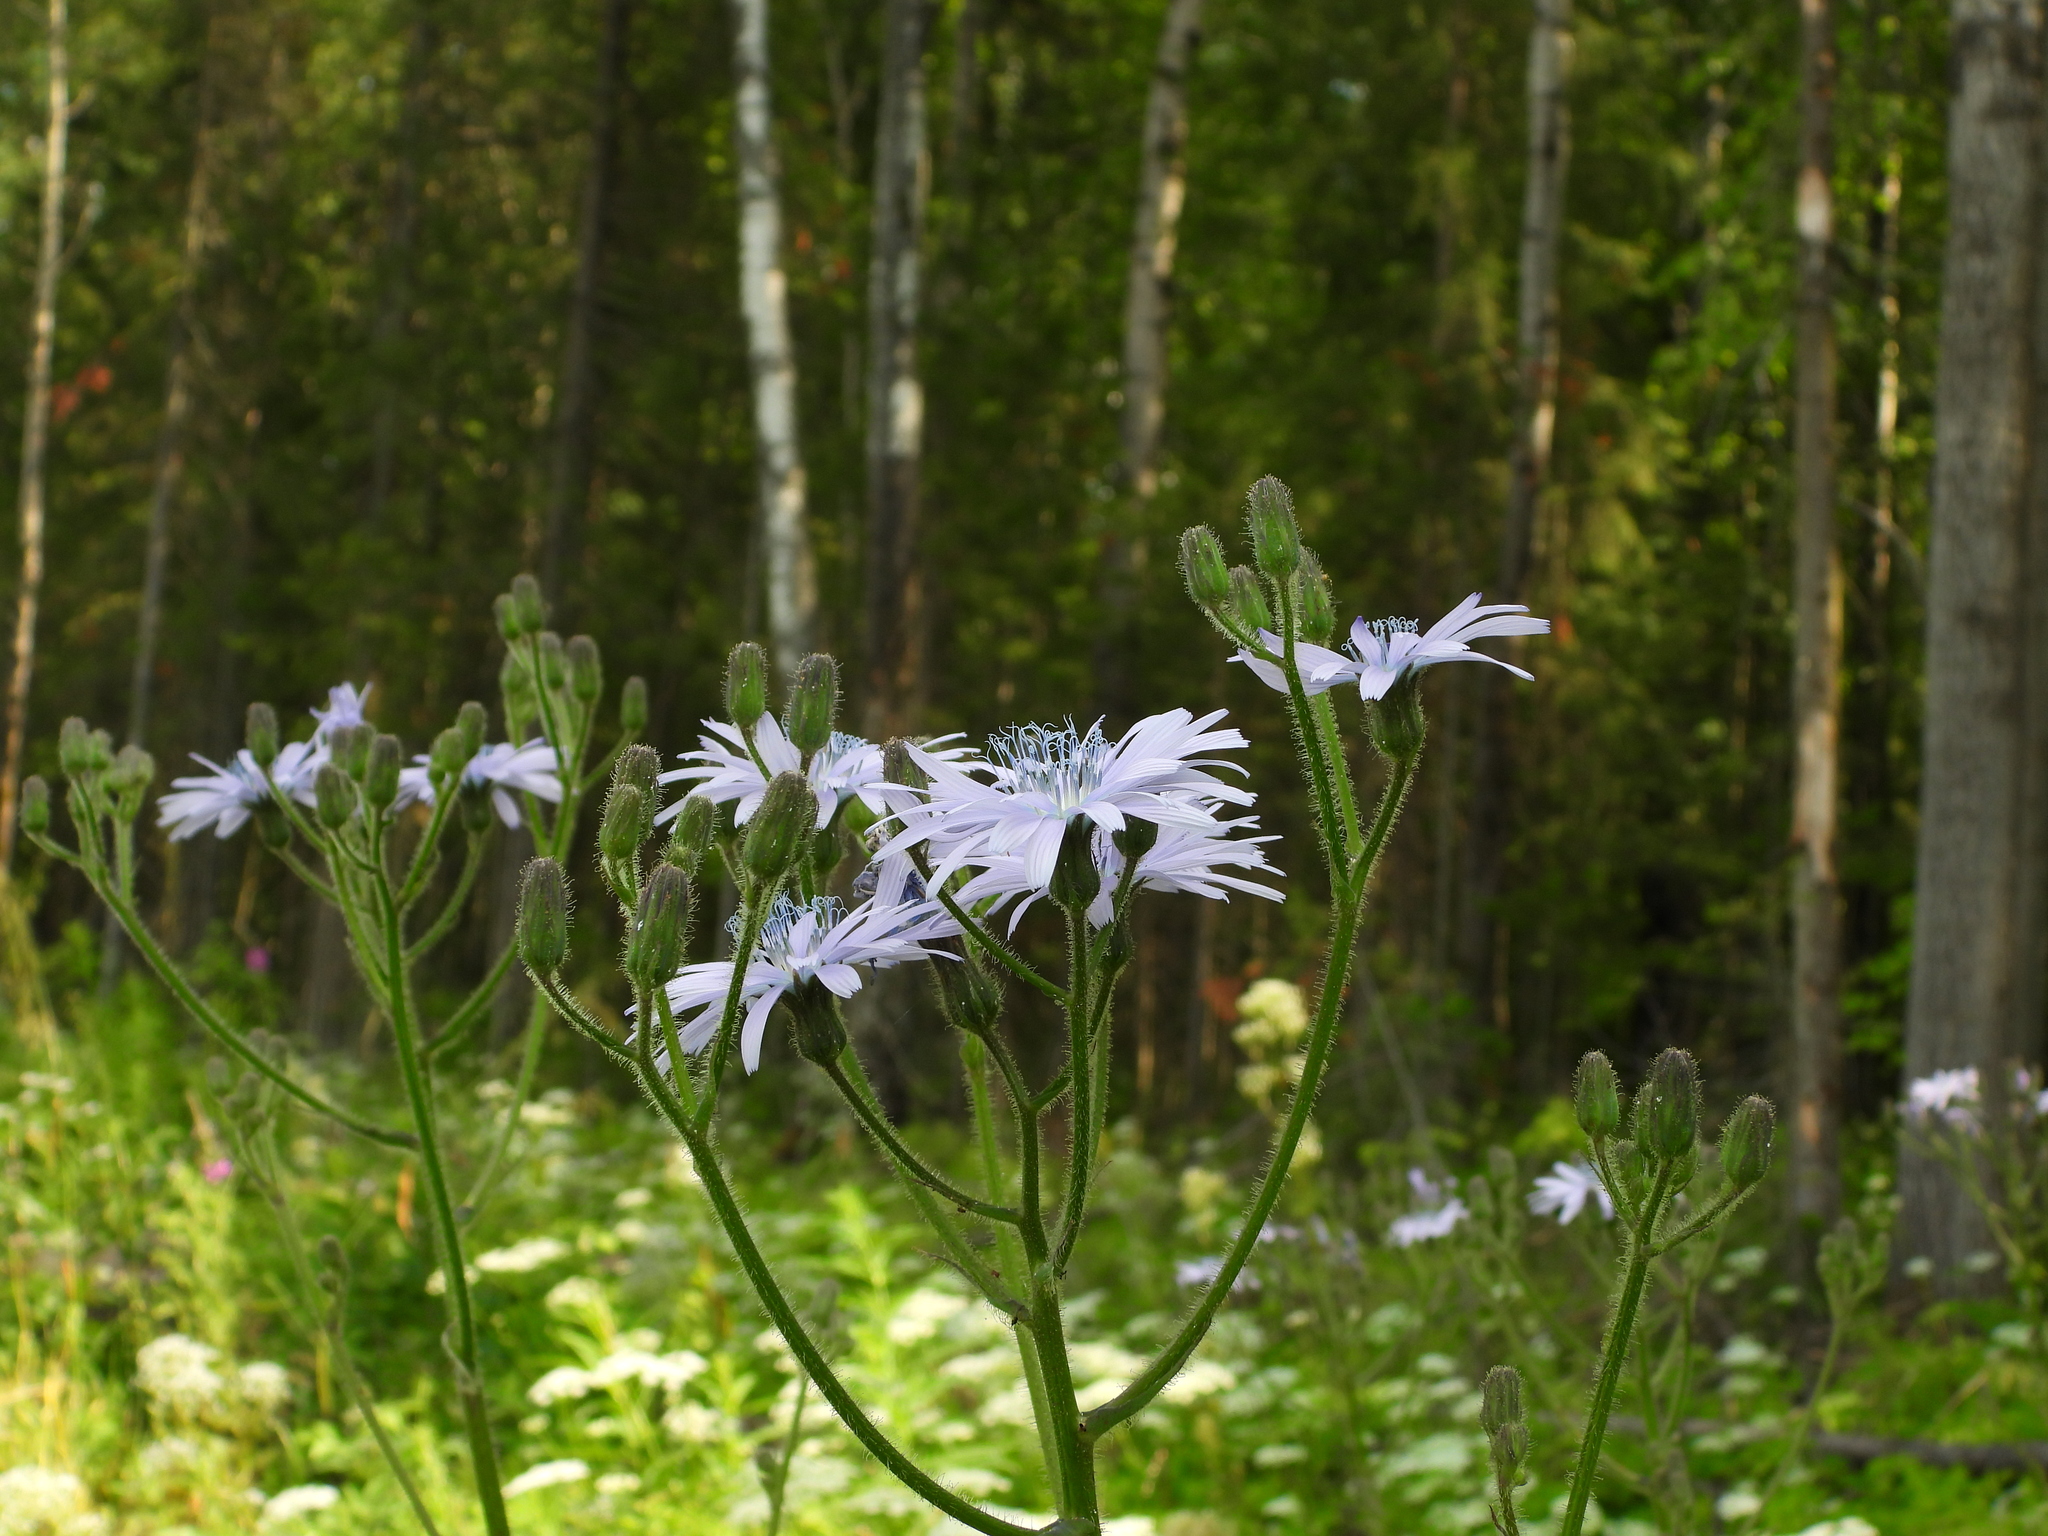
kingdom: Plantae
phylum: Tracheophyta
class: Magnoliopsida
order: Asterales
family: Asteraceae
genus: Lactuca
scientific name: Lactuca macrophylla
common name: Common blue-sow-thistle
